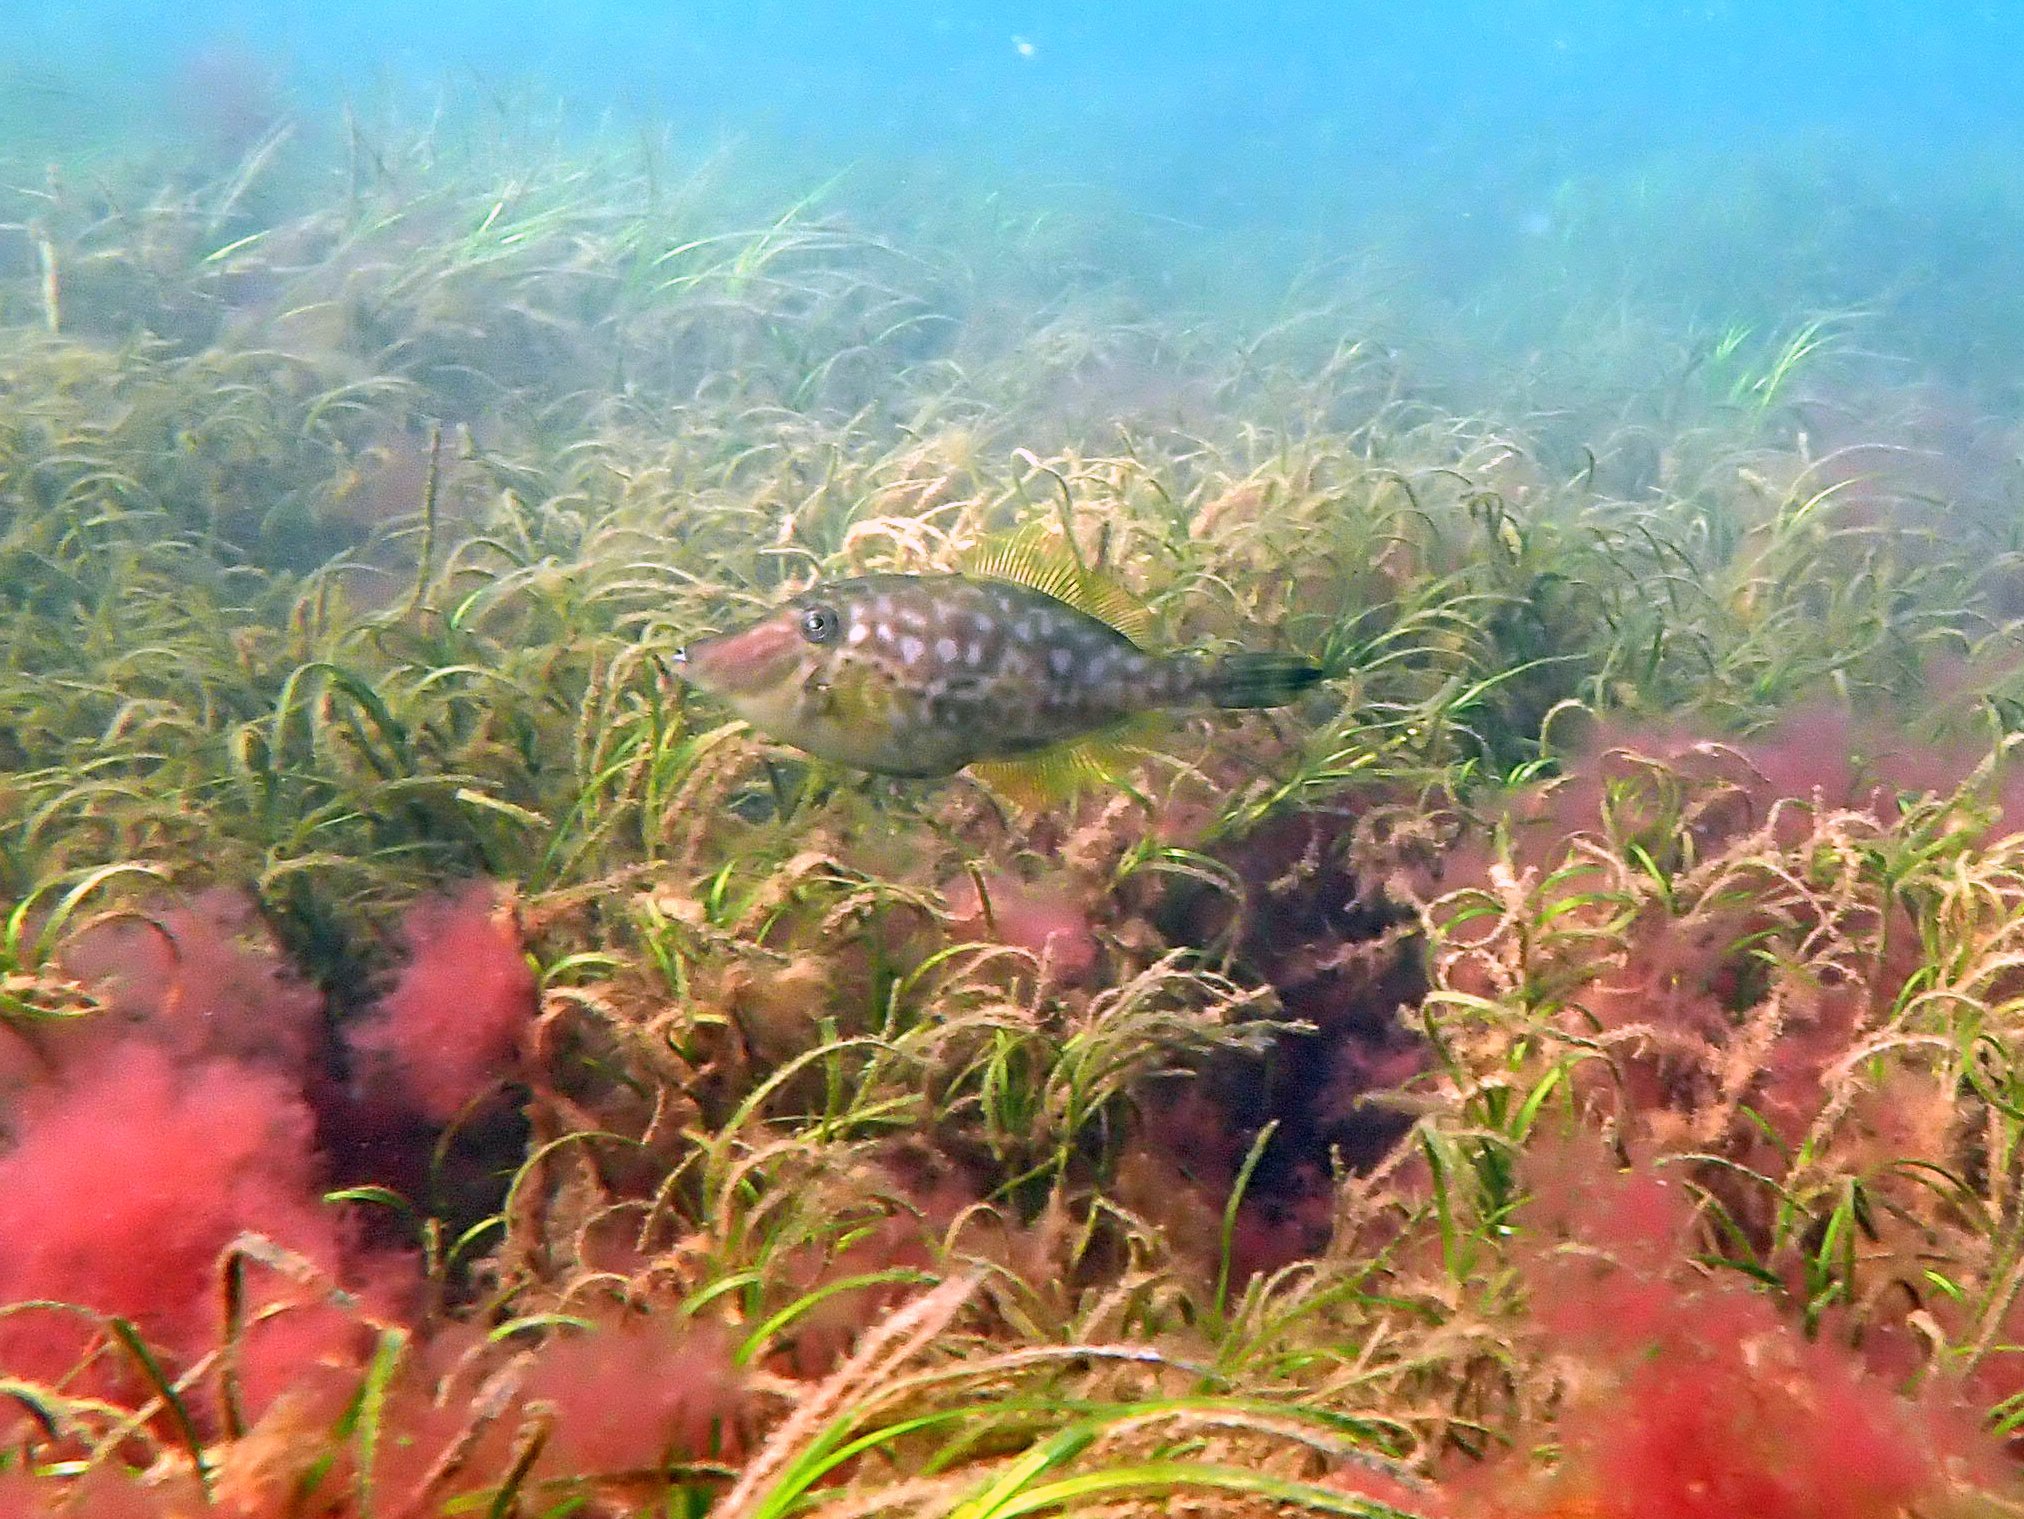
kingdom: Animalia
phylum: Chordata
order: Tetraodontiformes
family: Monacanthidae
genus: Acanthaluteres
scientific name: Acanthaluteres vittiger
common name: Brown leatherjacket
